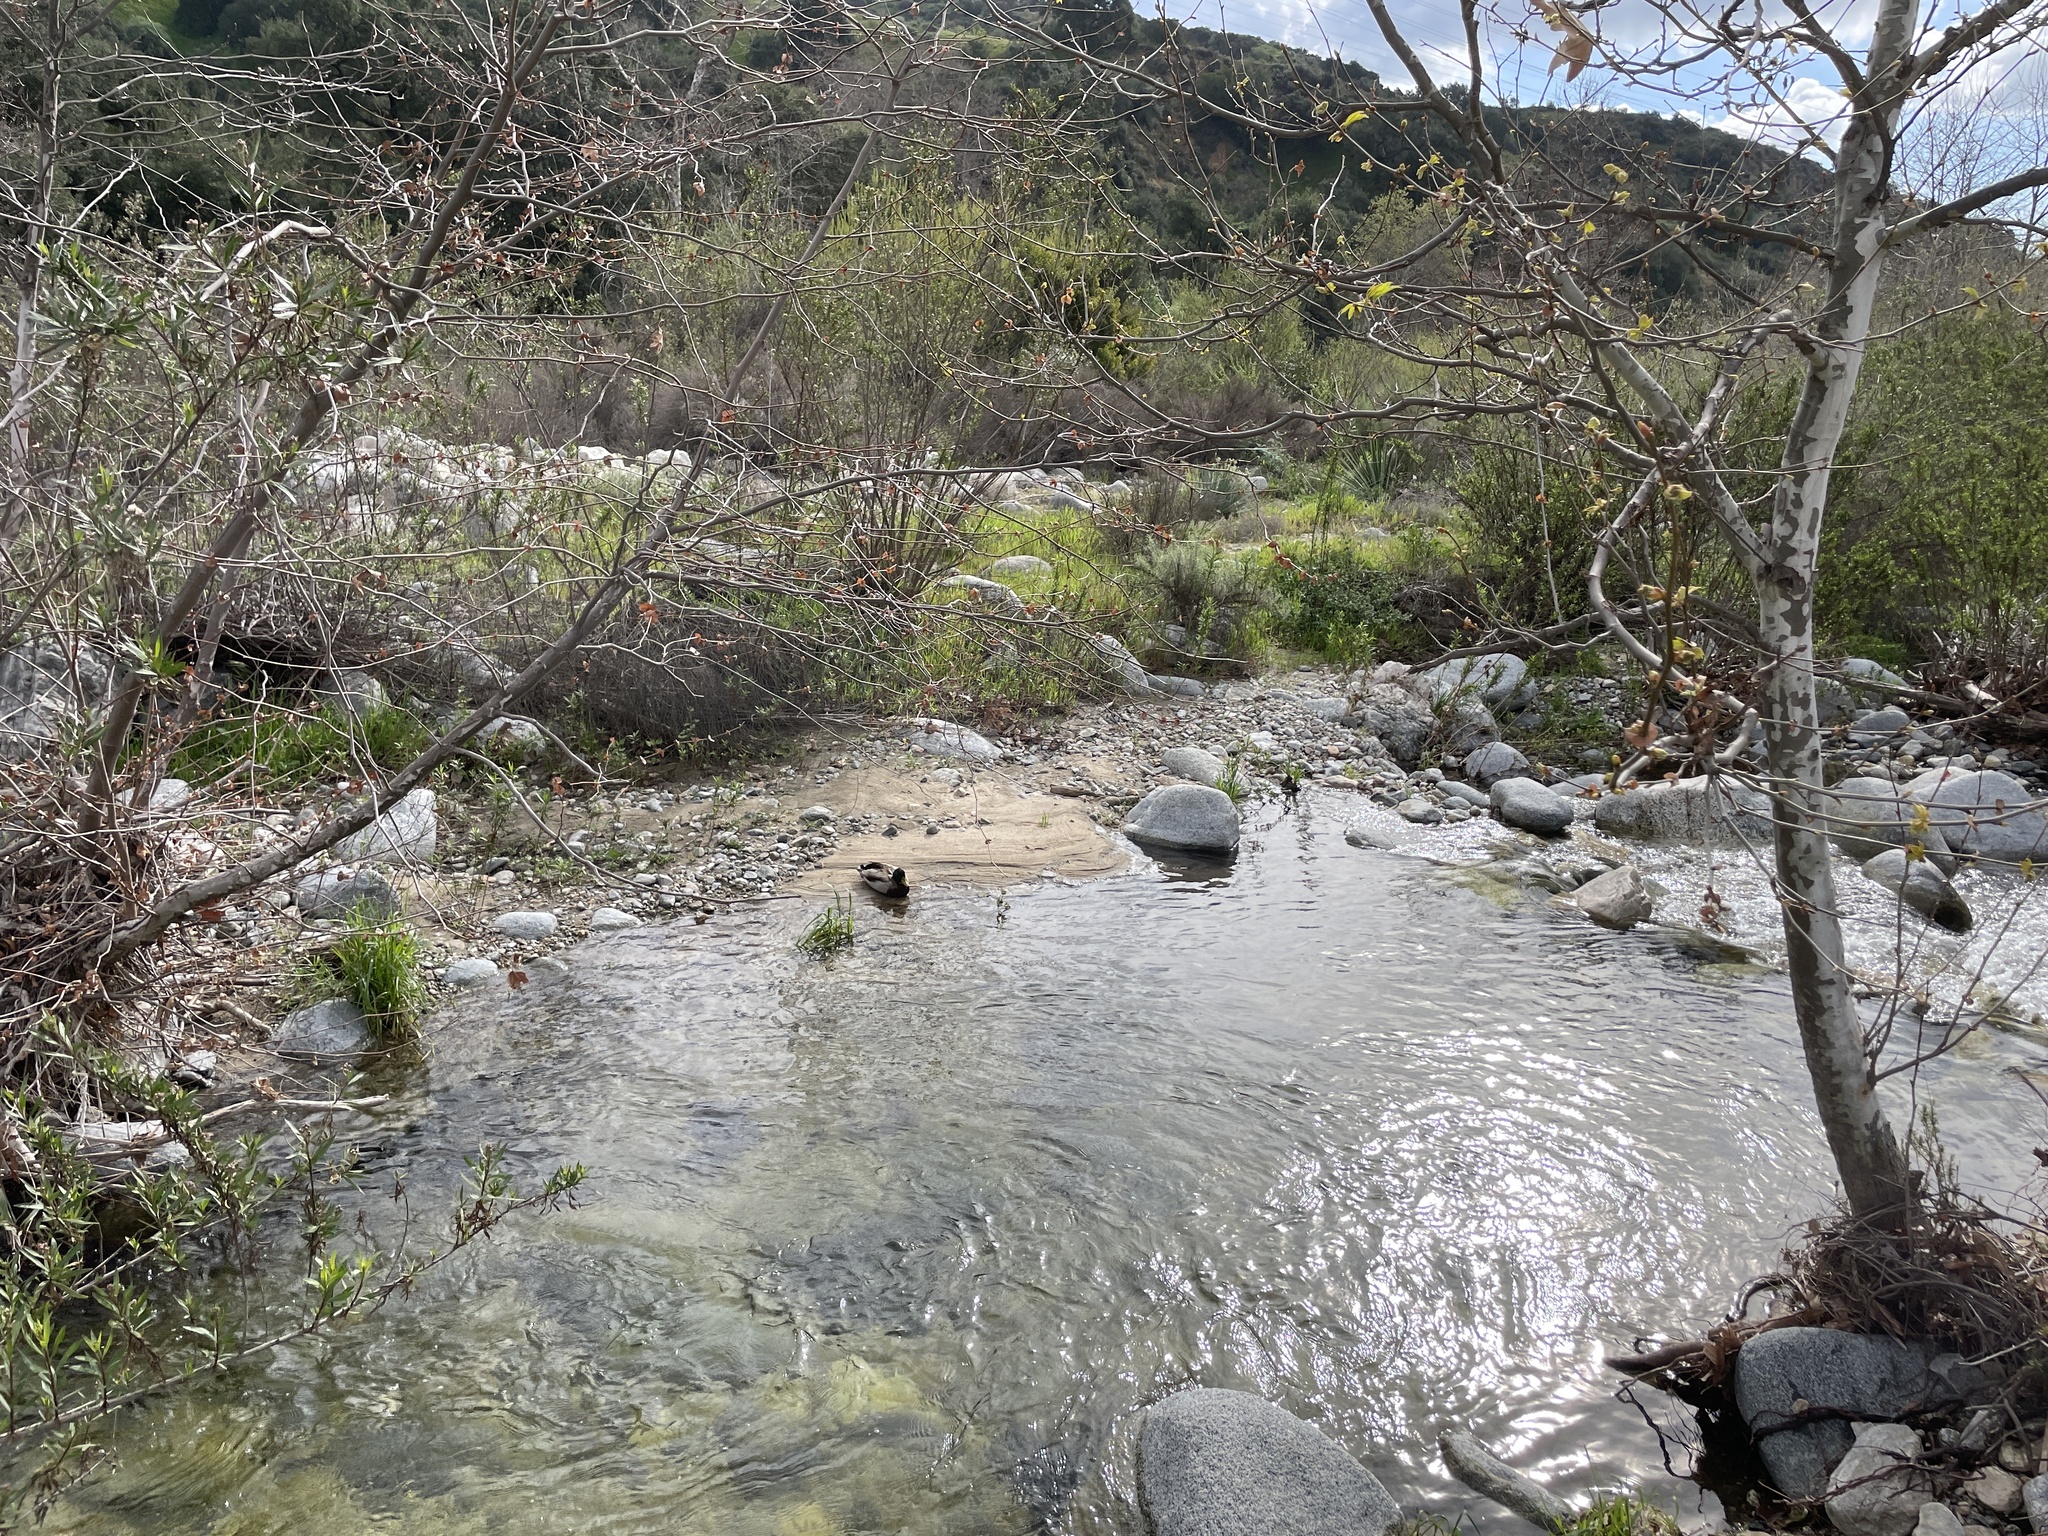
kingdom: Animalia
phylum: Chordata
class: Aves
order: Anseriformes
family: Anatidae
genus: Anas
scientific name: Anas platyrhynchos
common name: Mallard
